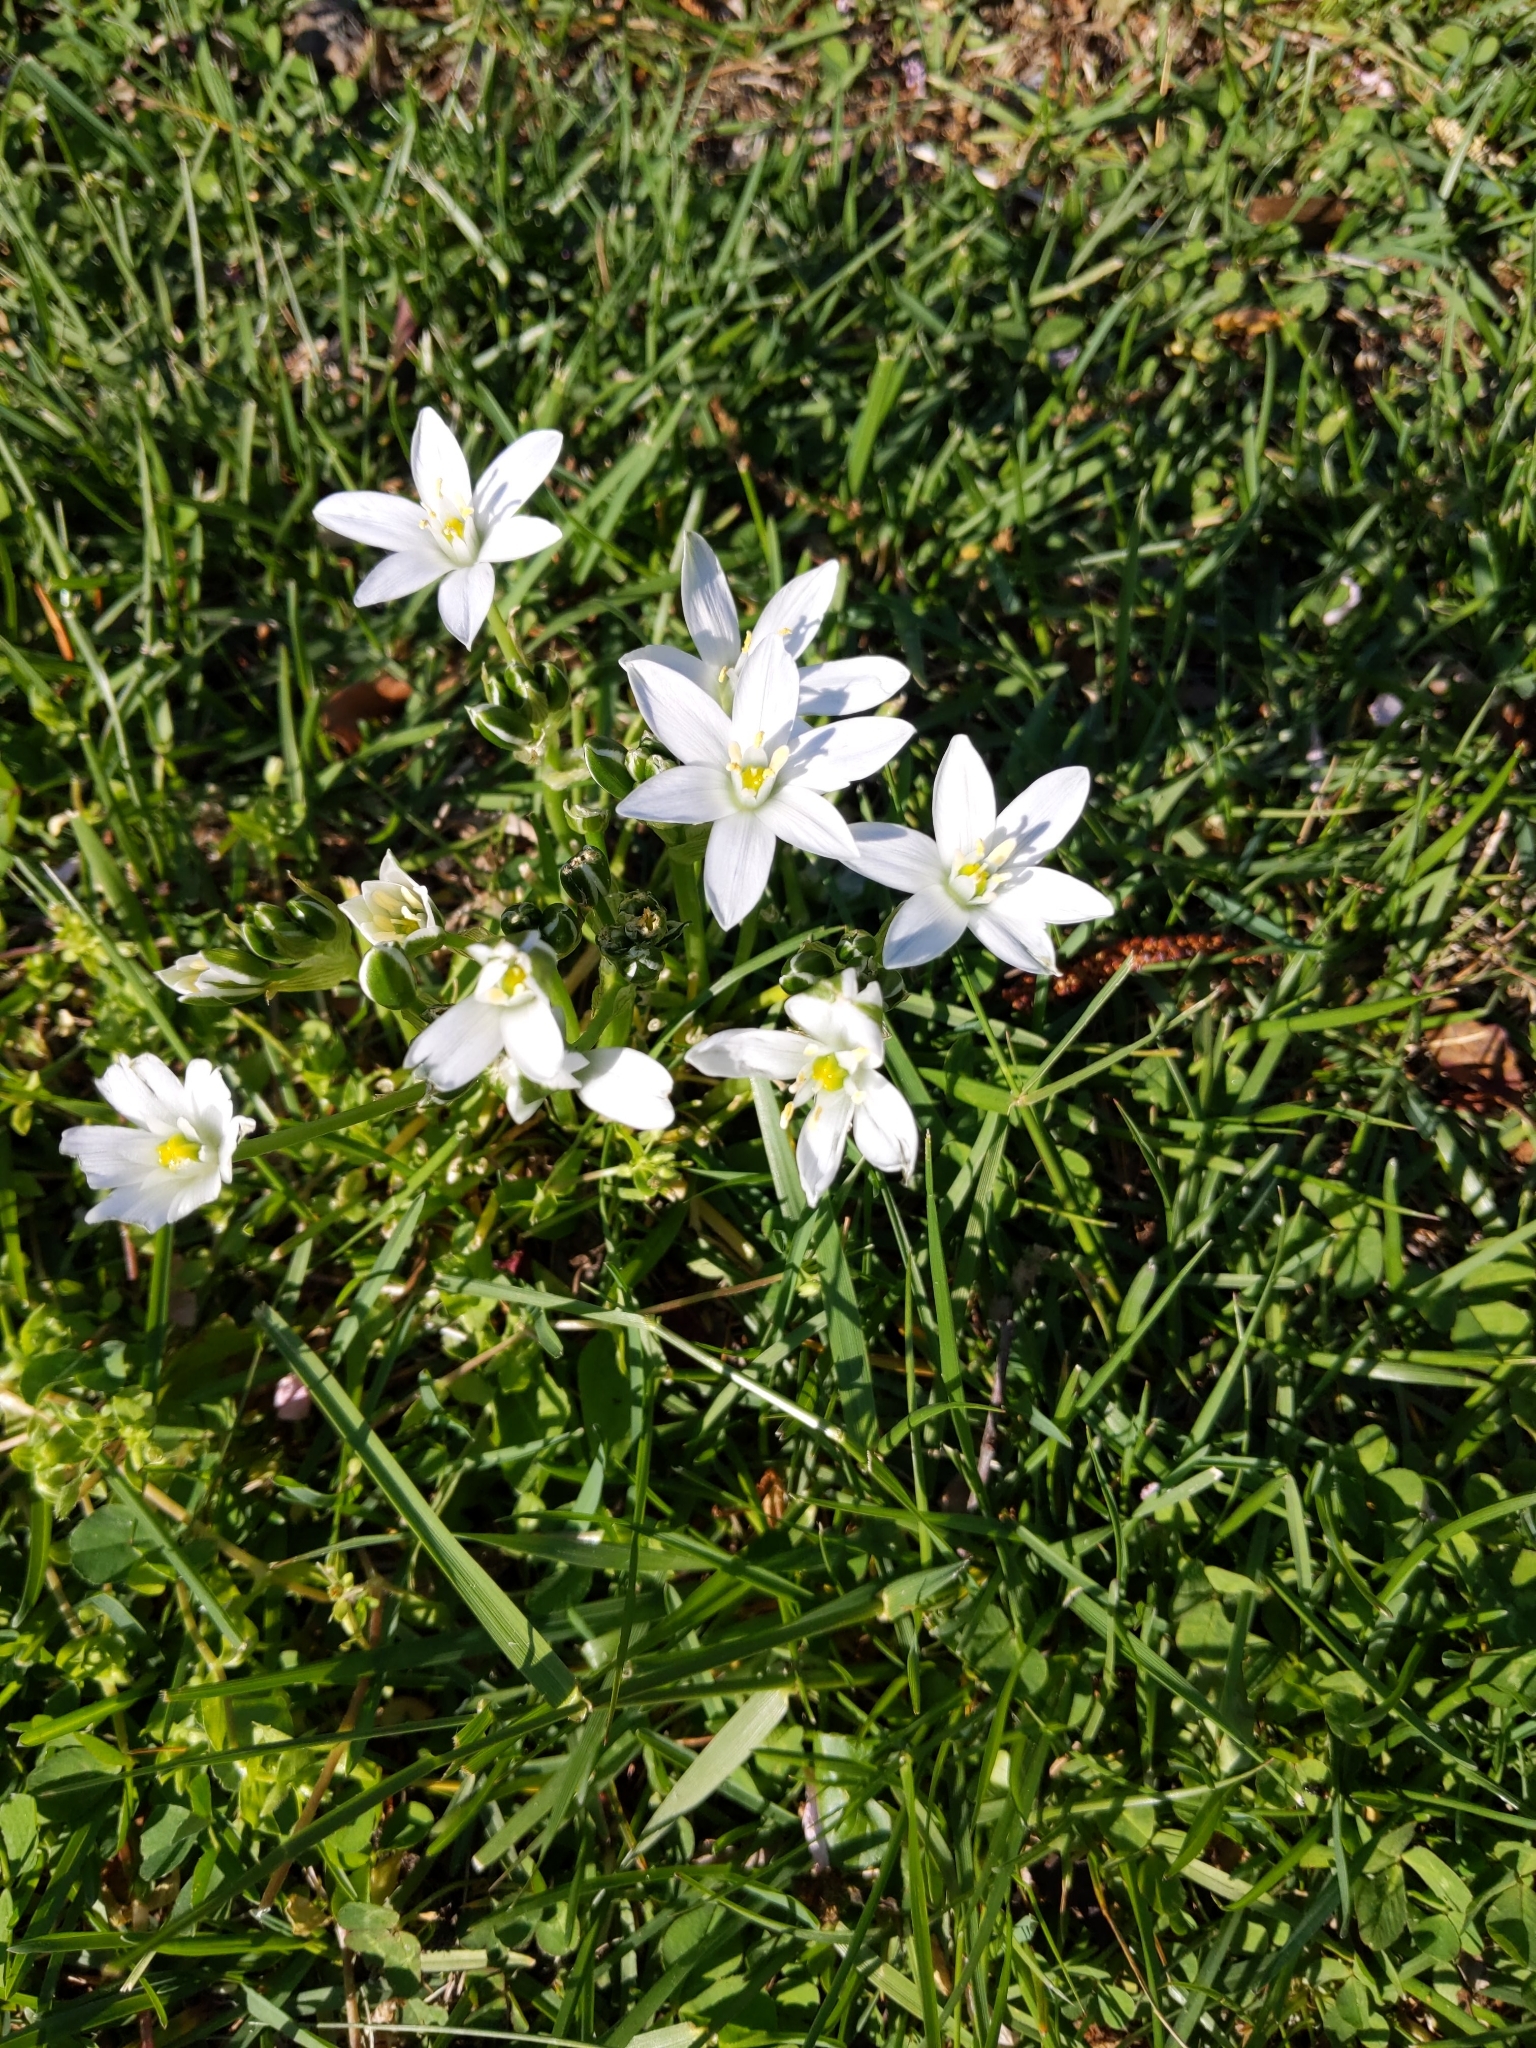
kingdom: Plantae
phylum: Tracheophyta
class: Liliopsida
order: Asparagales
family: Asparagaceae
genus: Ornithogalum
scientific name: Ornithogalum umbellatum
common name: Garden star-of-bethlehem
